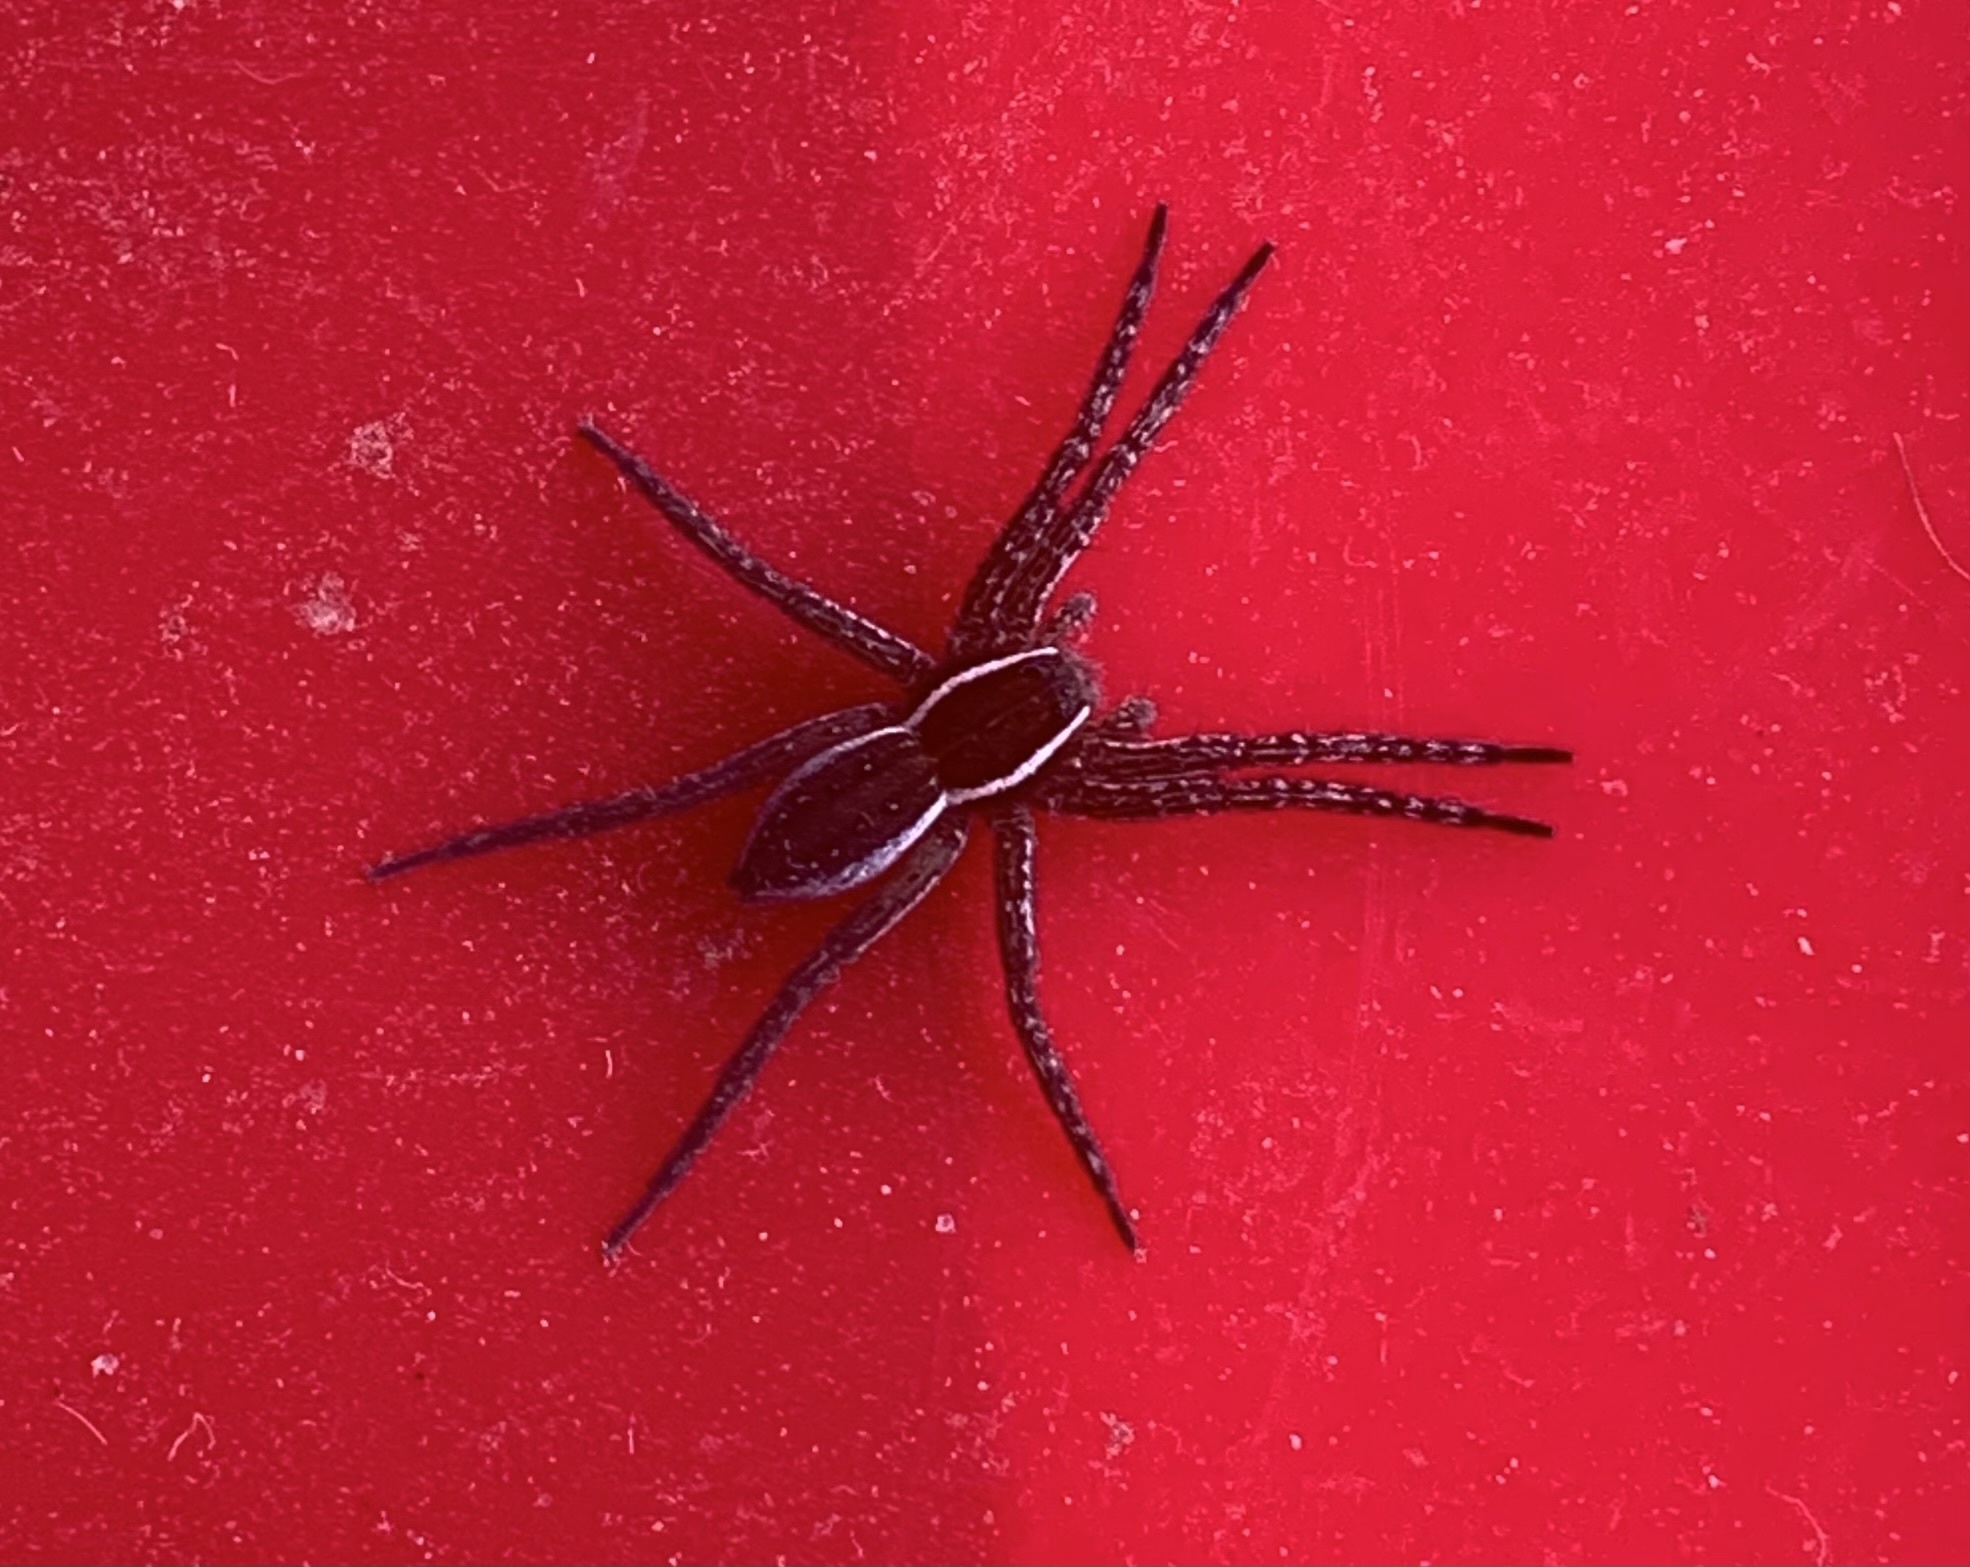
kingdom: Animalia
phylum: Arthropoda
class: Arachnida
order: Araneae
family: Pisauridae
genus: Dolomedes
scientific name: Dolomedes triton
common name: Six-spotted fishing spider
